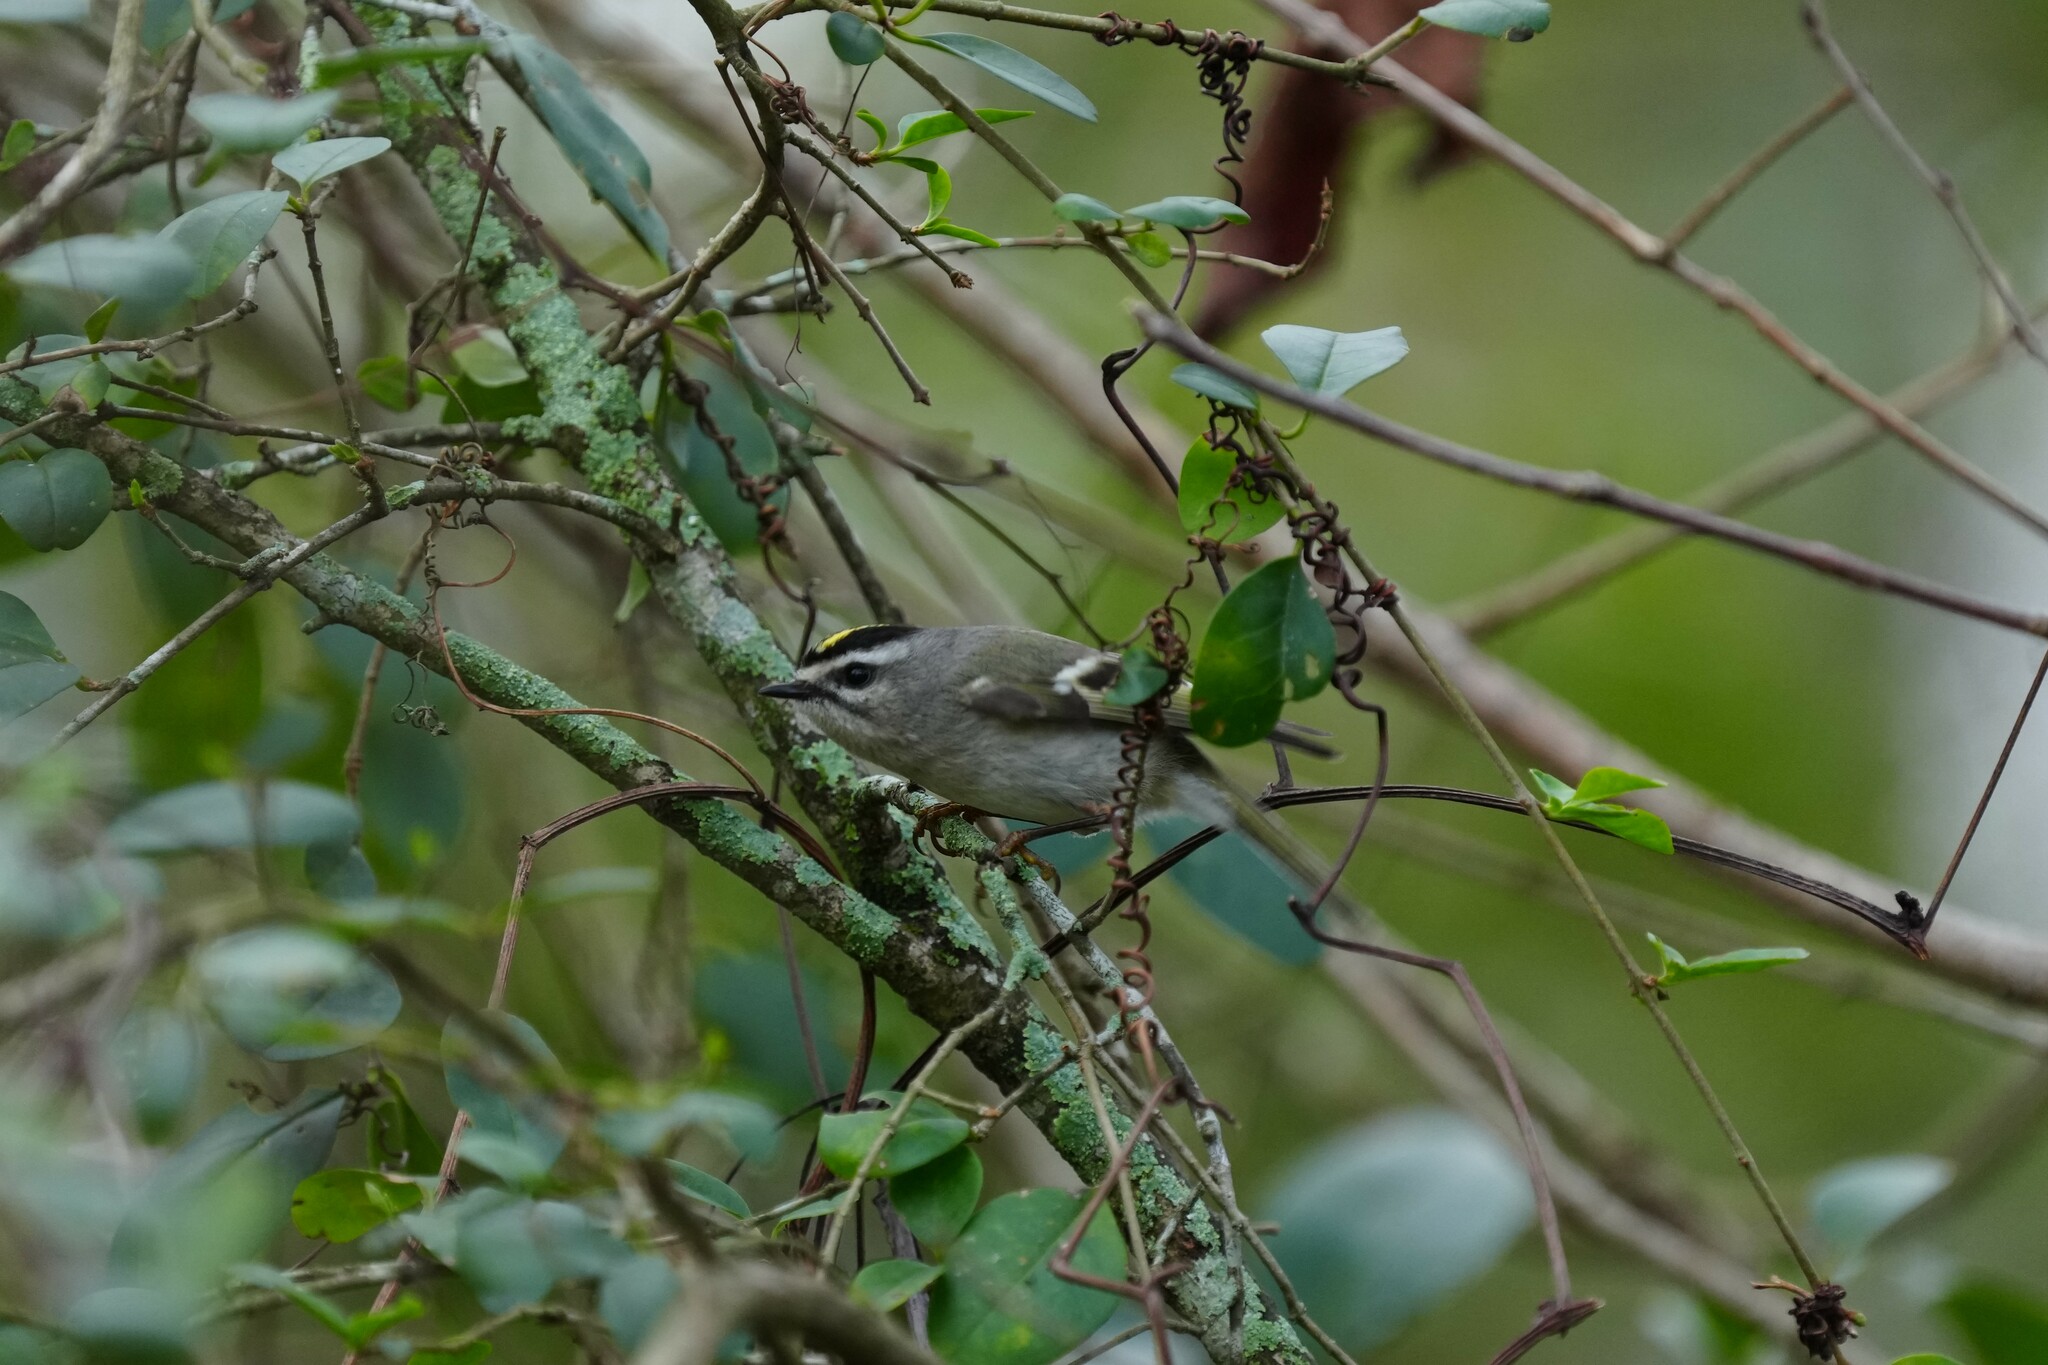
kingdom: Animalia
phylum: Chordata
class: Aves
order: Passeriformes
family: Regulidae
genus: Regulus
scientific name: Regulus satrapa
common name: Golden-crowned kinglet
